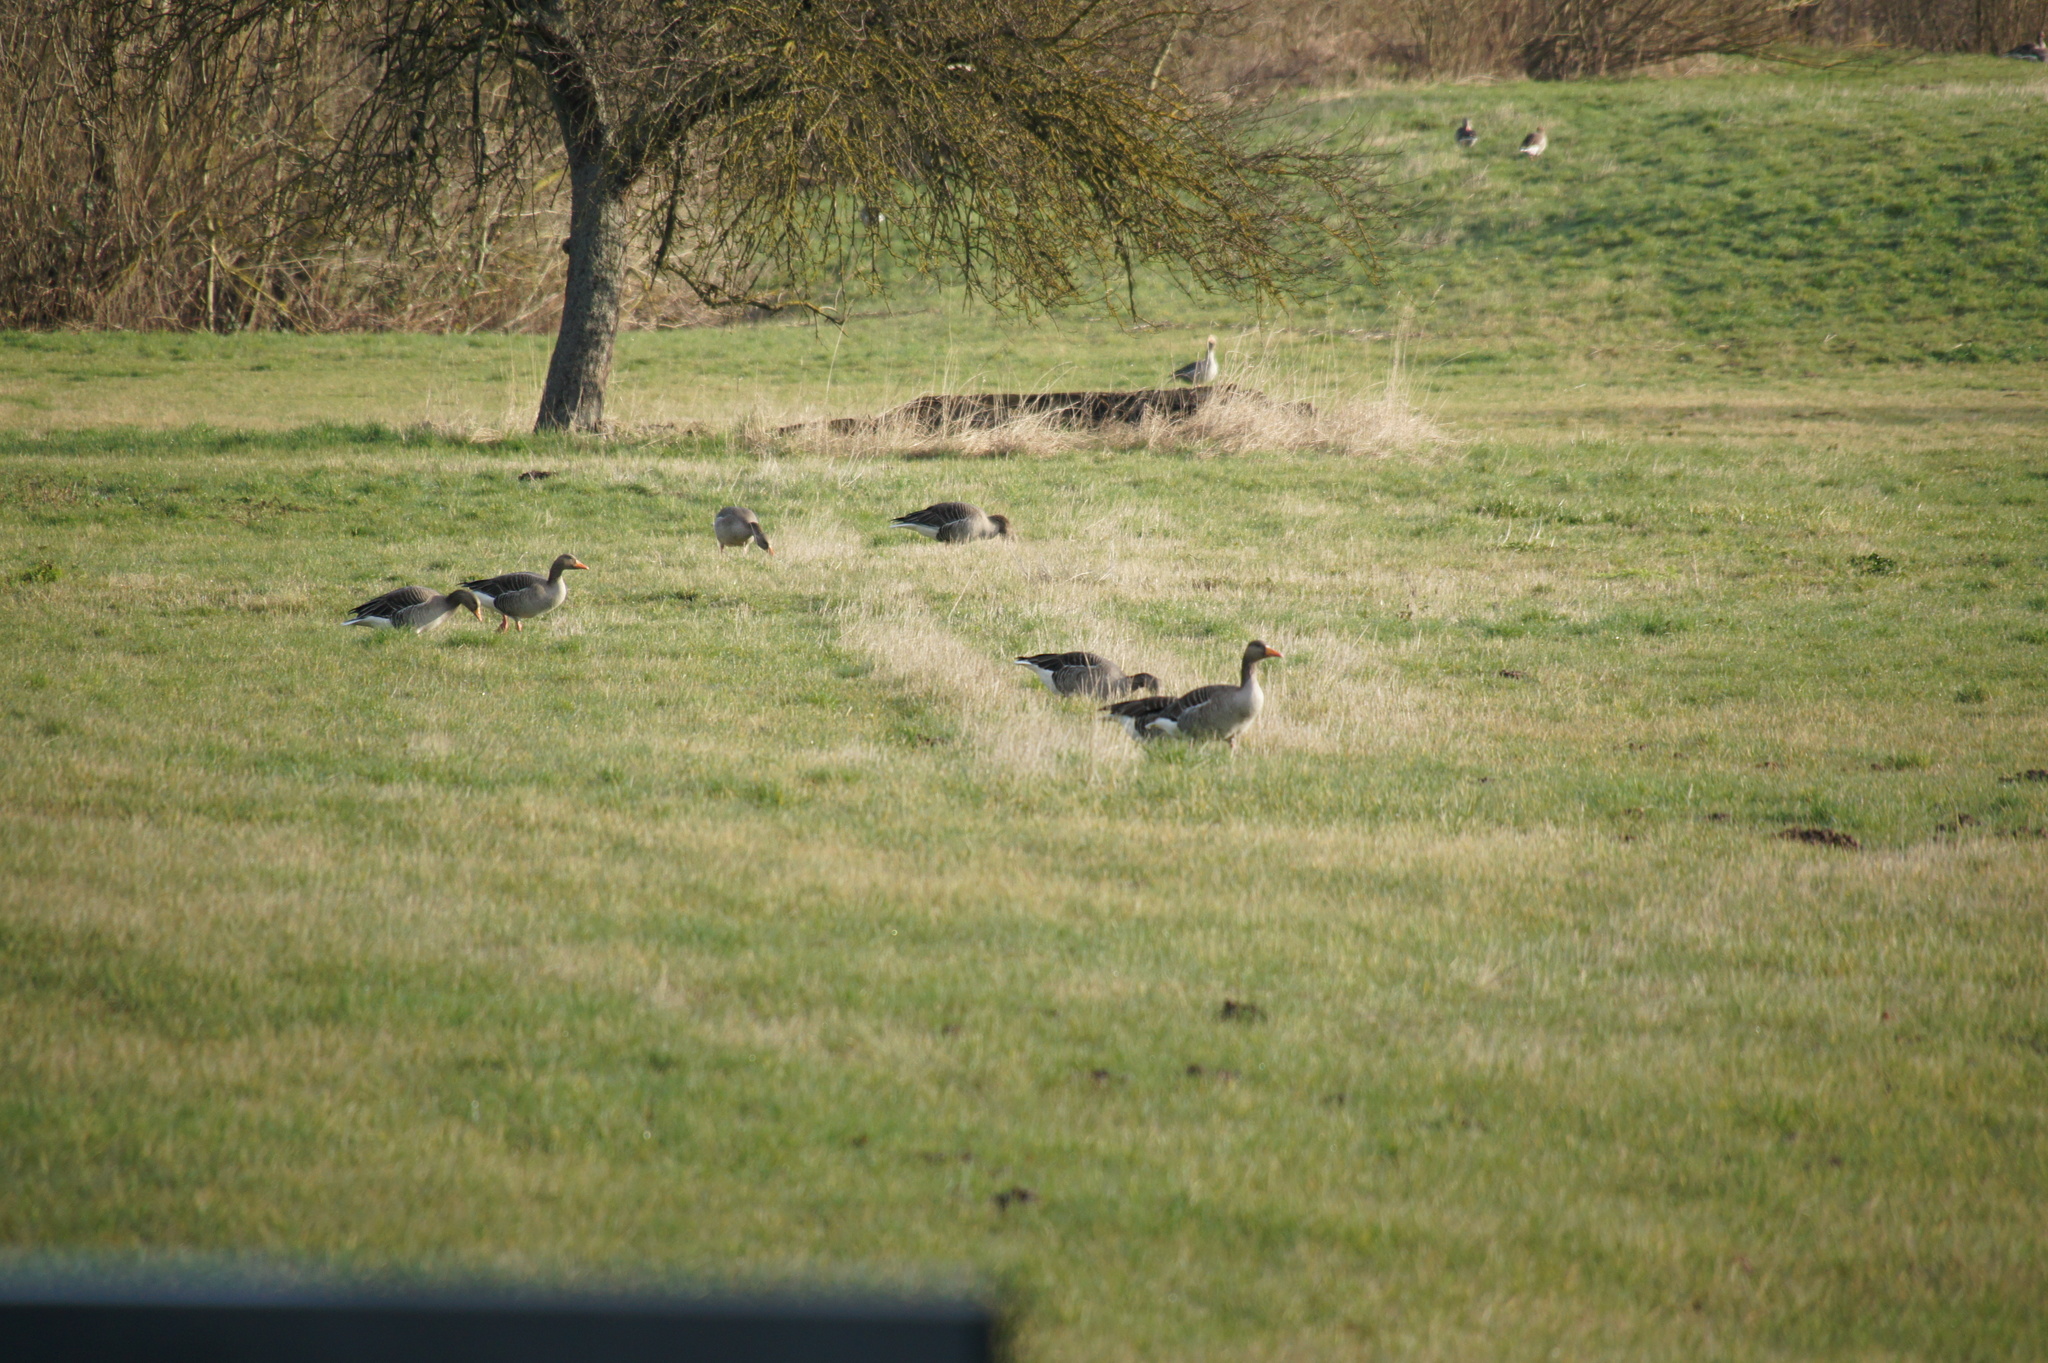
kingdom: Animalia
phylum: Chordata
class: Aves
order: Anseriformes
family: Anatidae
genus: Anser
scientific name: Anser anser
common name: Greylag goose
